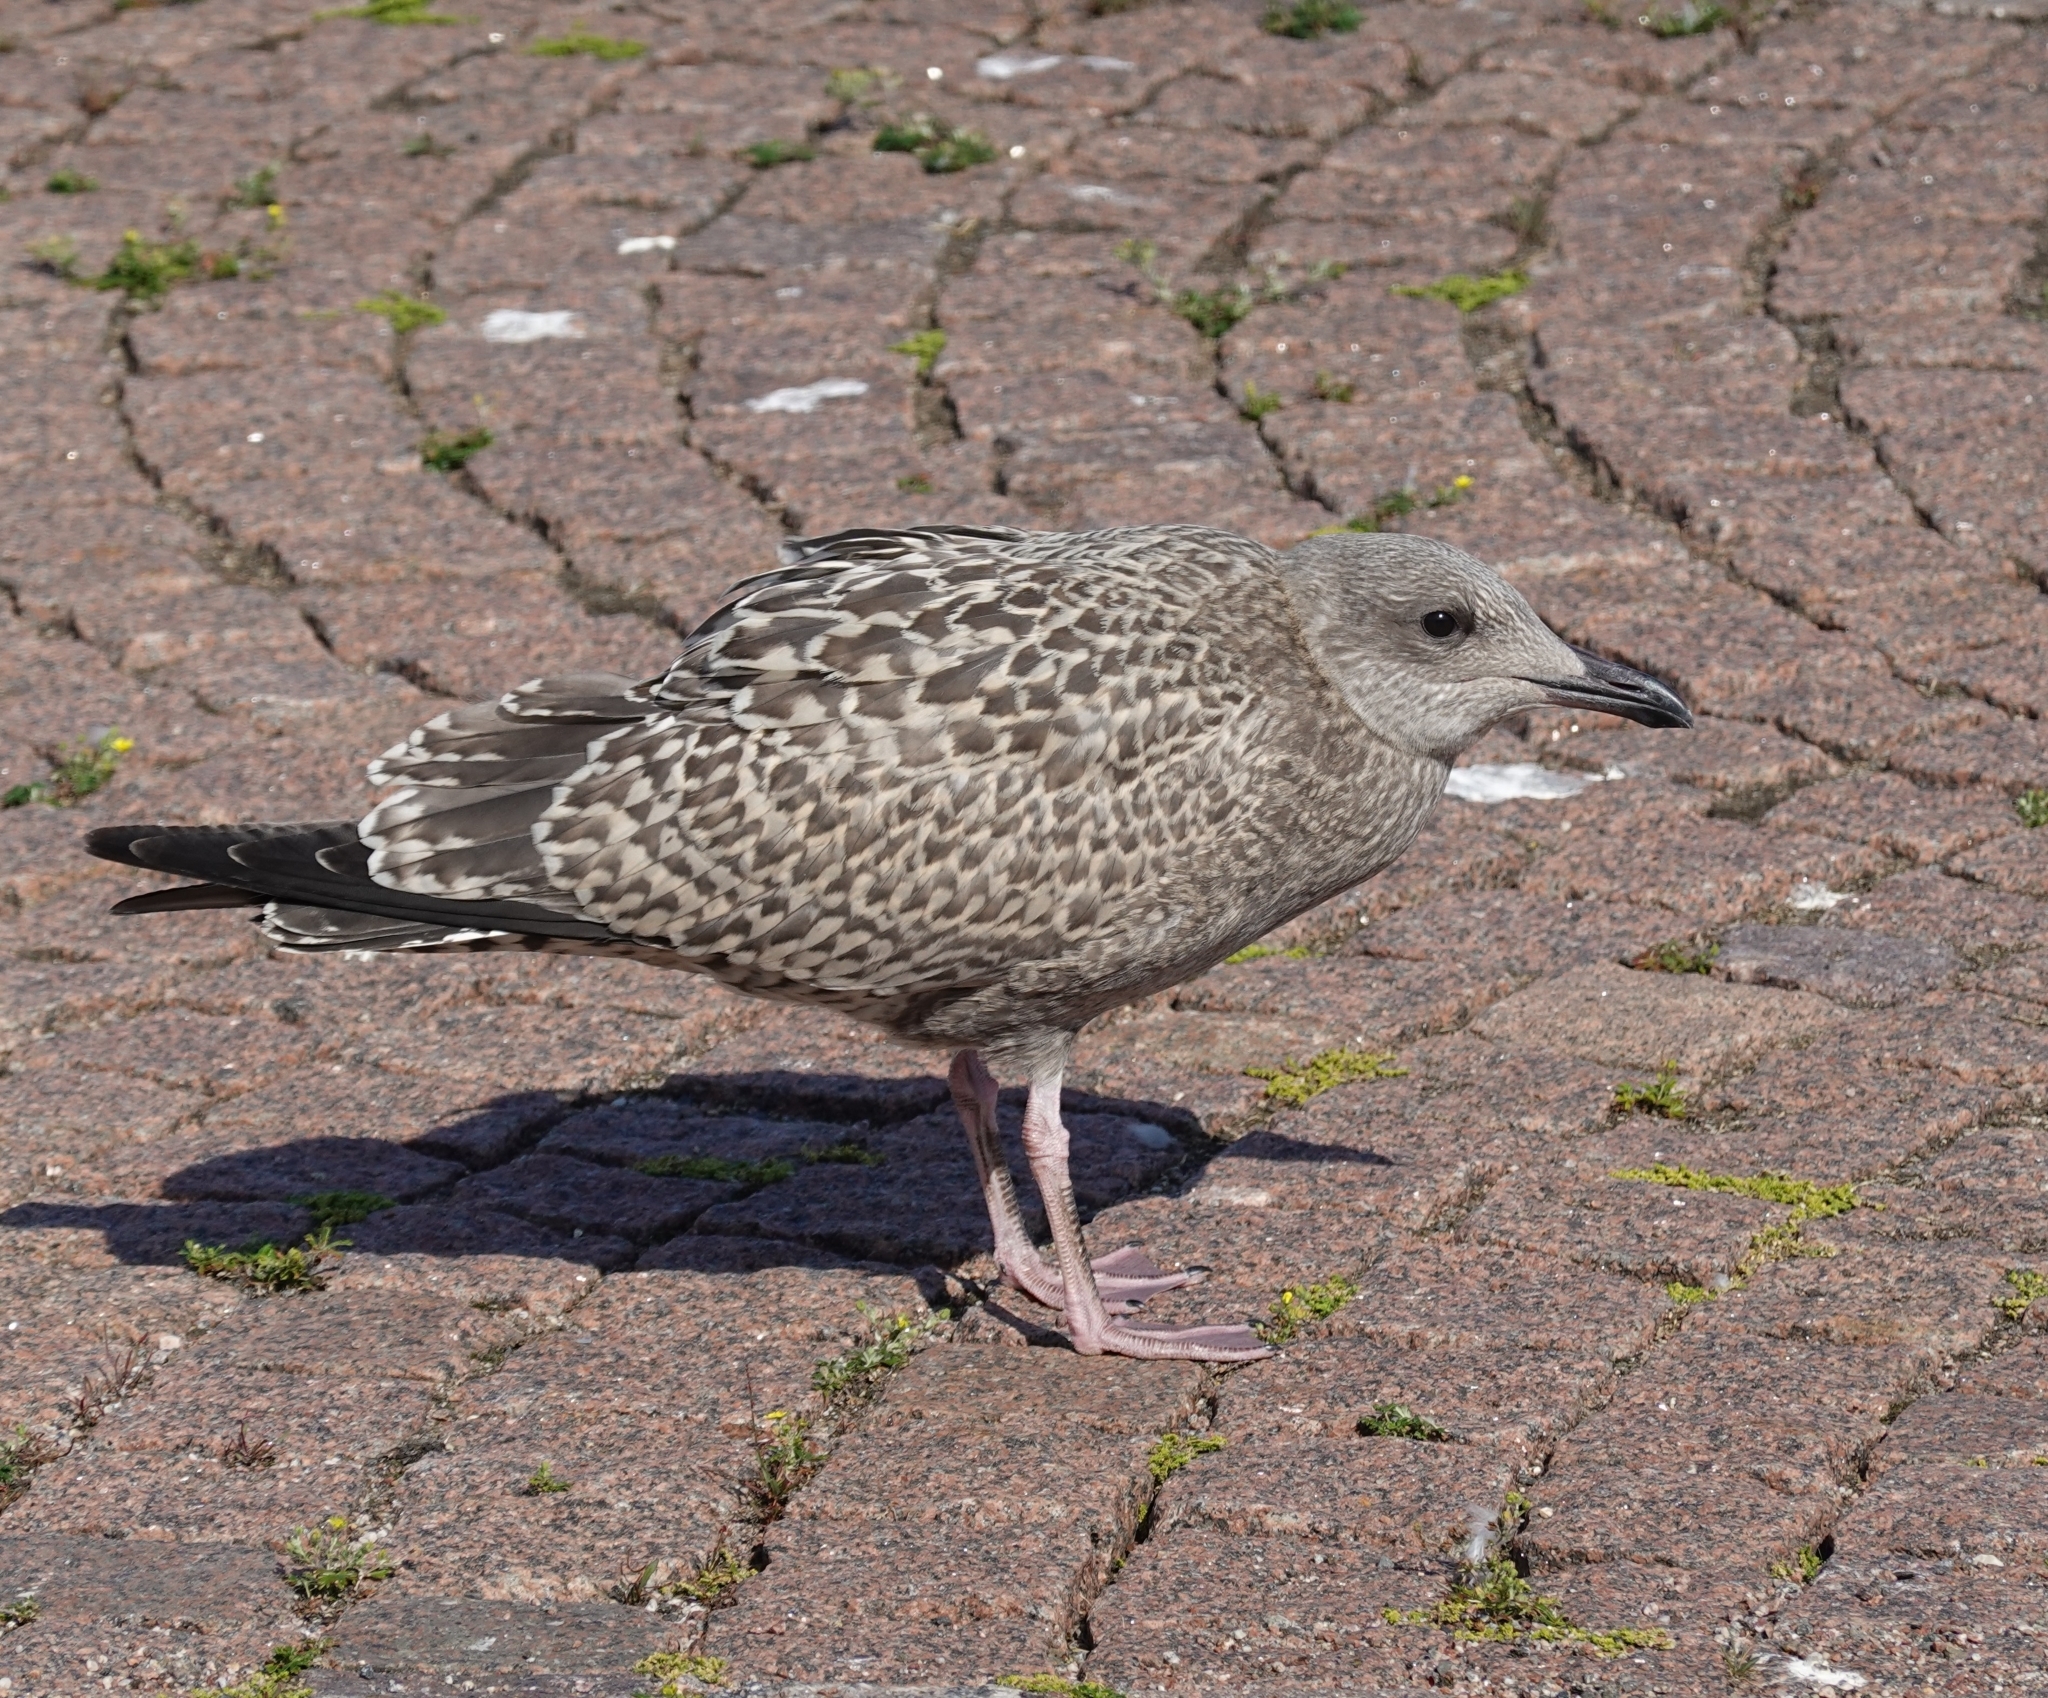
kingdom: Animalia
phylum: Chordata
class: Aves
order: Charadriiformes
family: Laridae
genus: Larus
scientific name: Larus argentatus
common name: Herring gull
